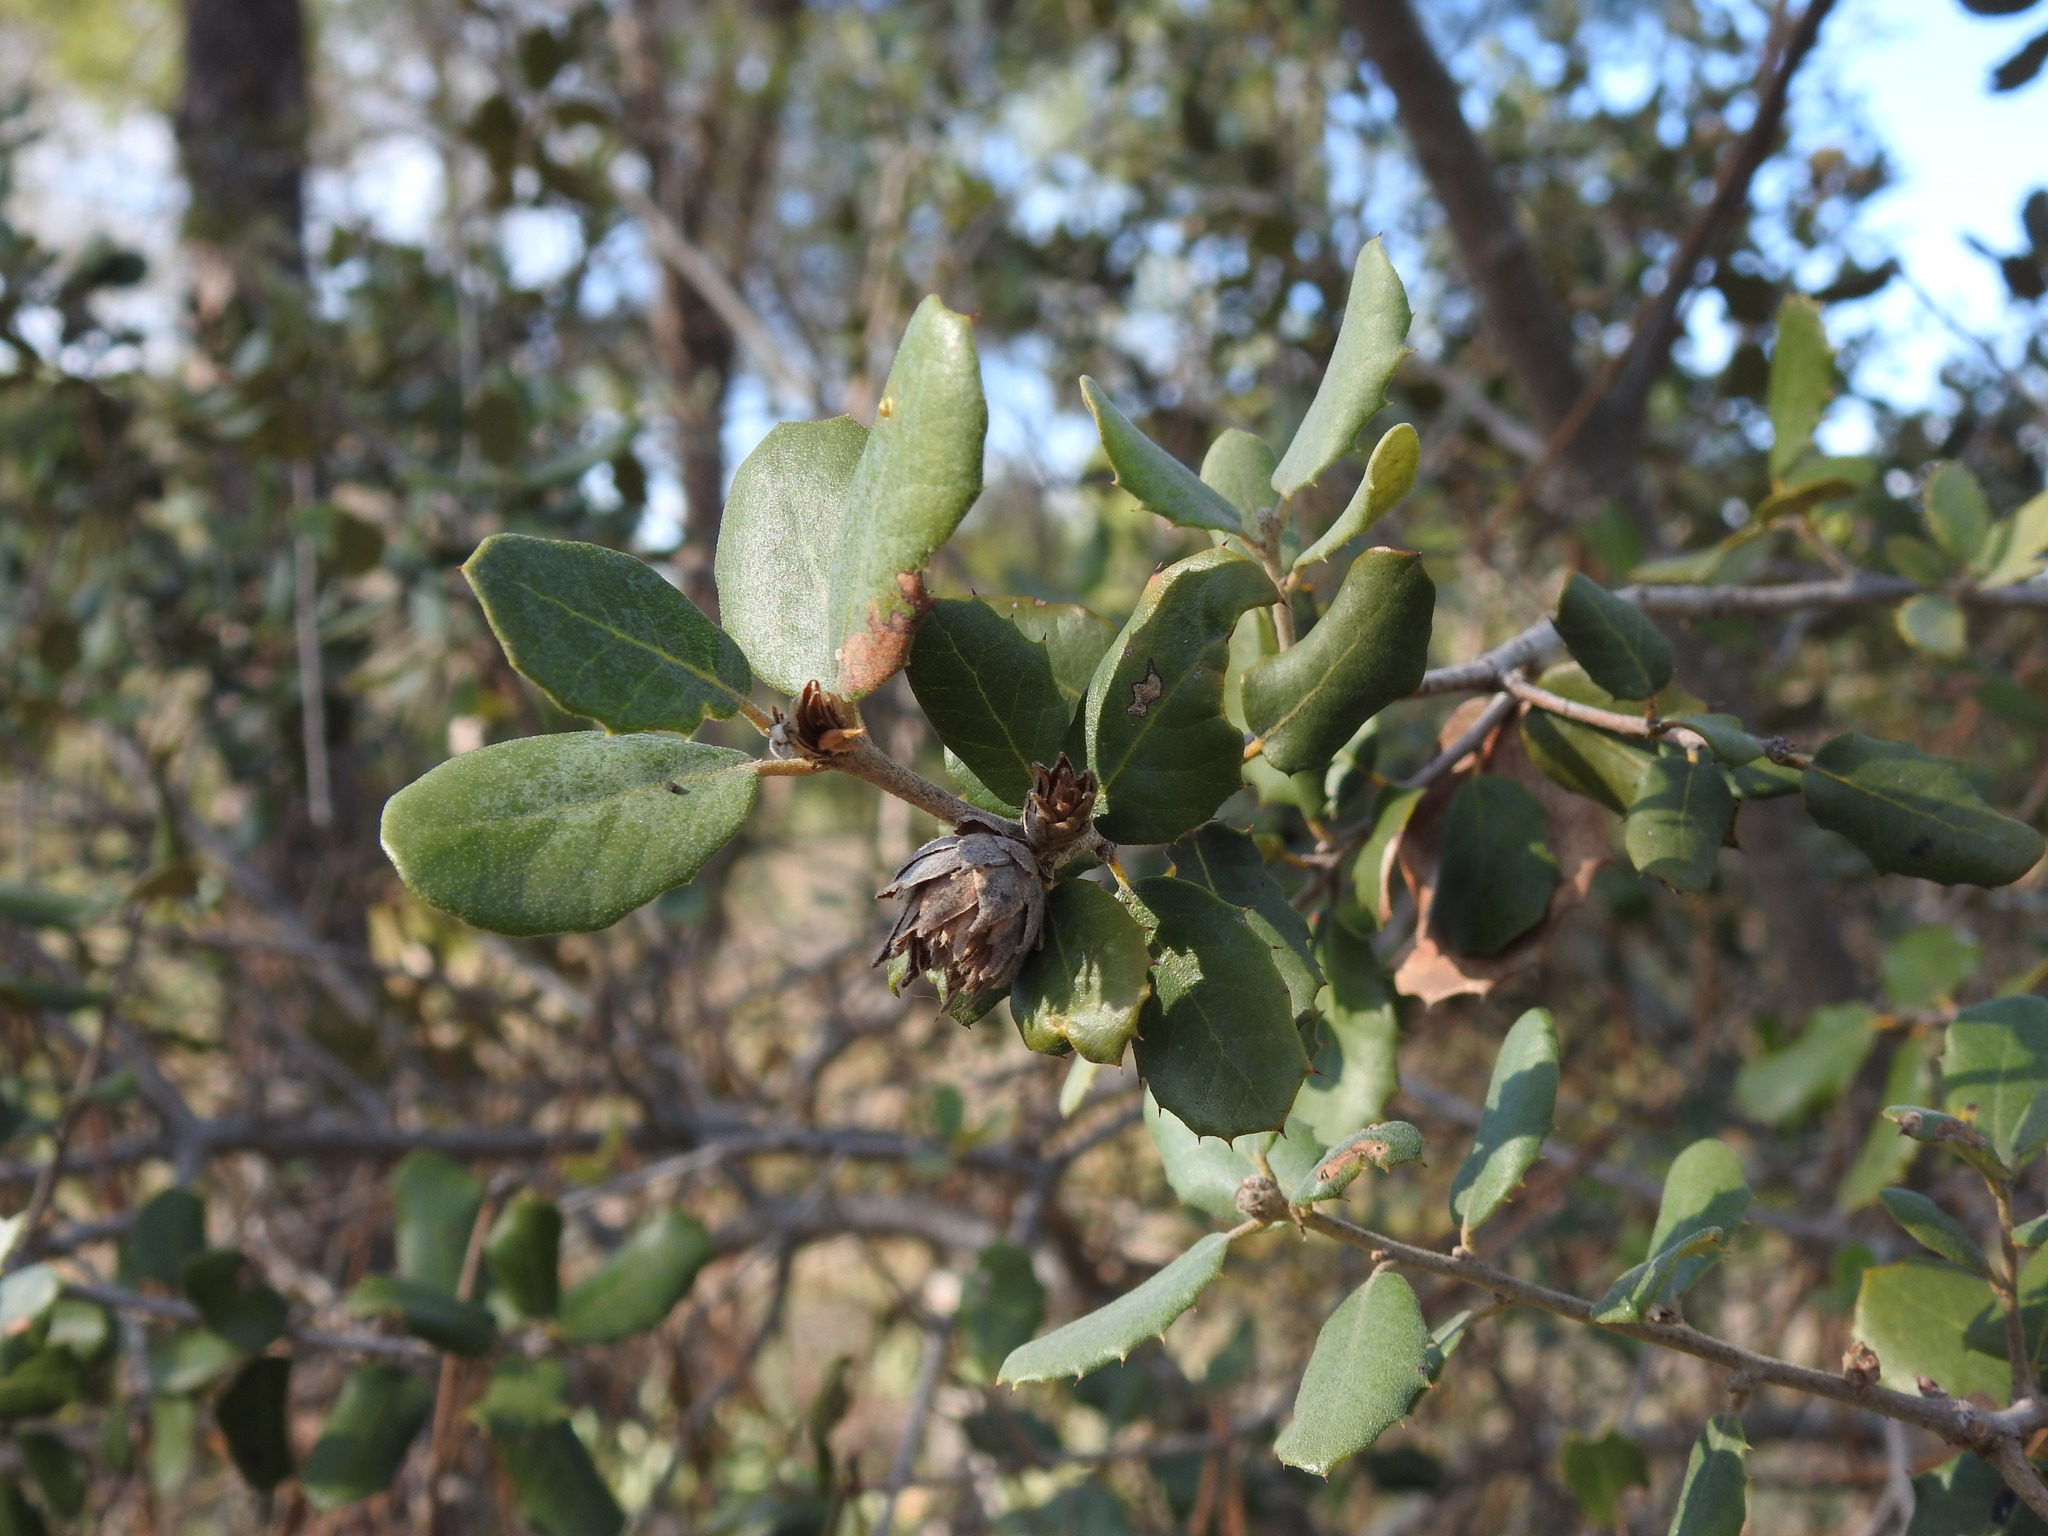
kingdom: Plantae
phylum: Tracheophyta
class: Magnoliopsida
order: Fagales
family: Fagaceae
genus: Quercus
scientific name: Quercus rotundifolia
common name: Holm oak
